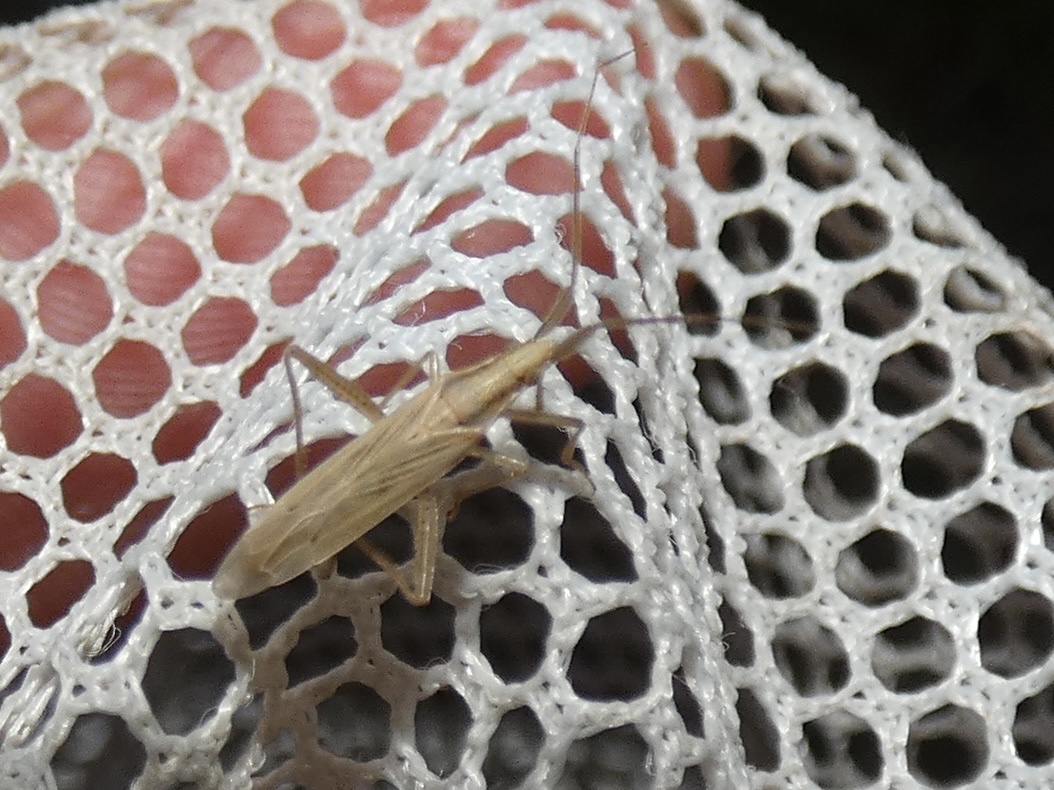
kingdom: Animalia
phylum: Arthropoda
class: Insecta
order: Hemiptera
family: Miridae
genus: Stenodema
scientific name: Stenodema laevigata
